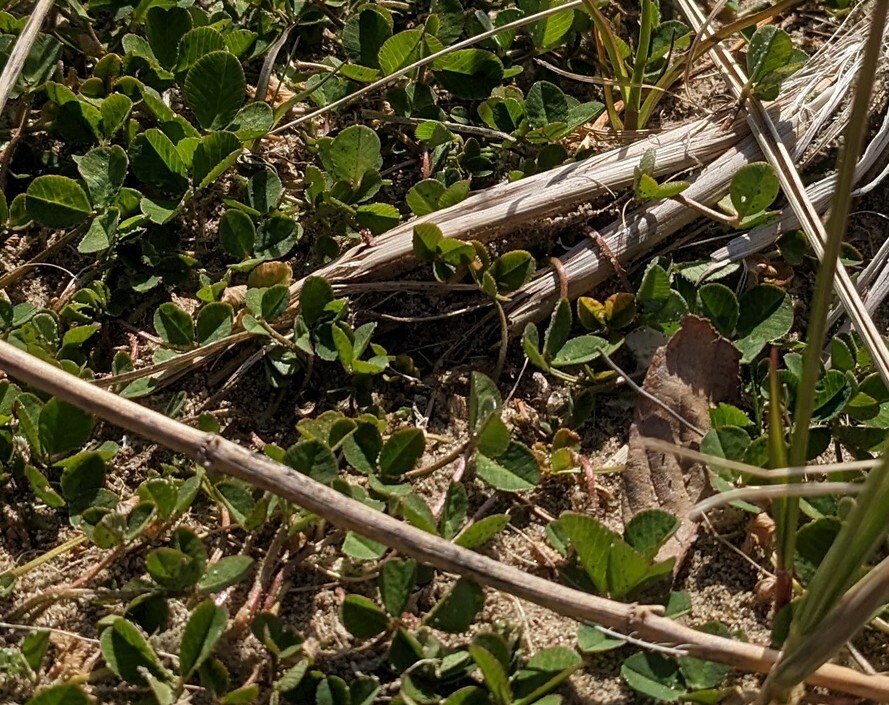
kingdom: Plantae
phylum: Tracheophyta
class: Magnoliopsida
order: Fabales
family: Fabaceae
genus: Lathyrus
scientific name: Lathyrus japonicus
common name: Sea pea
